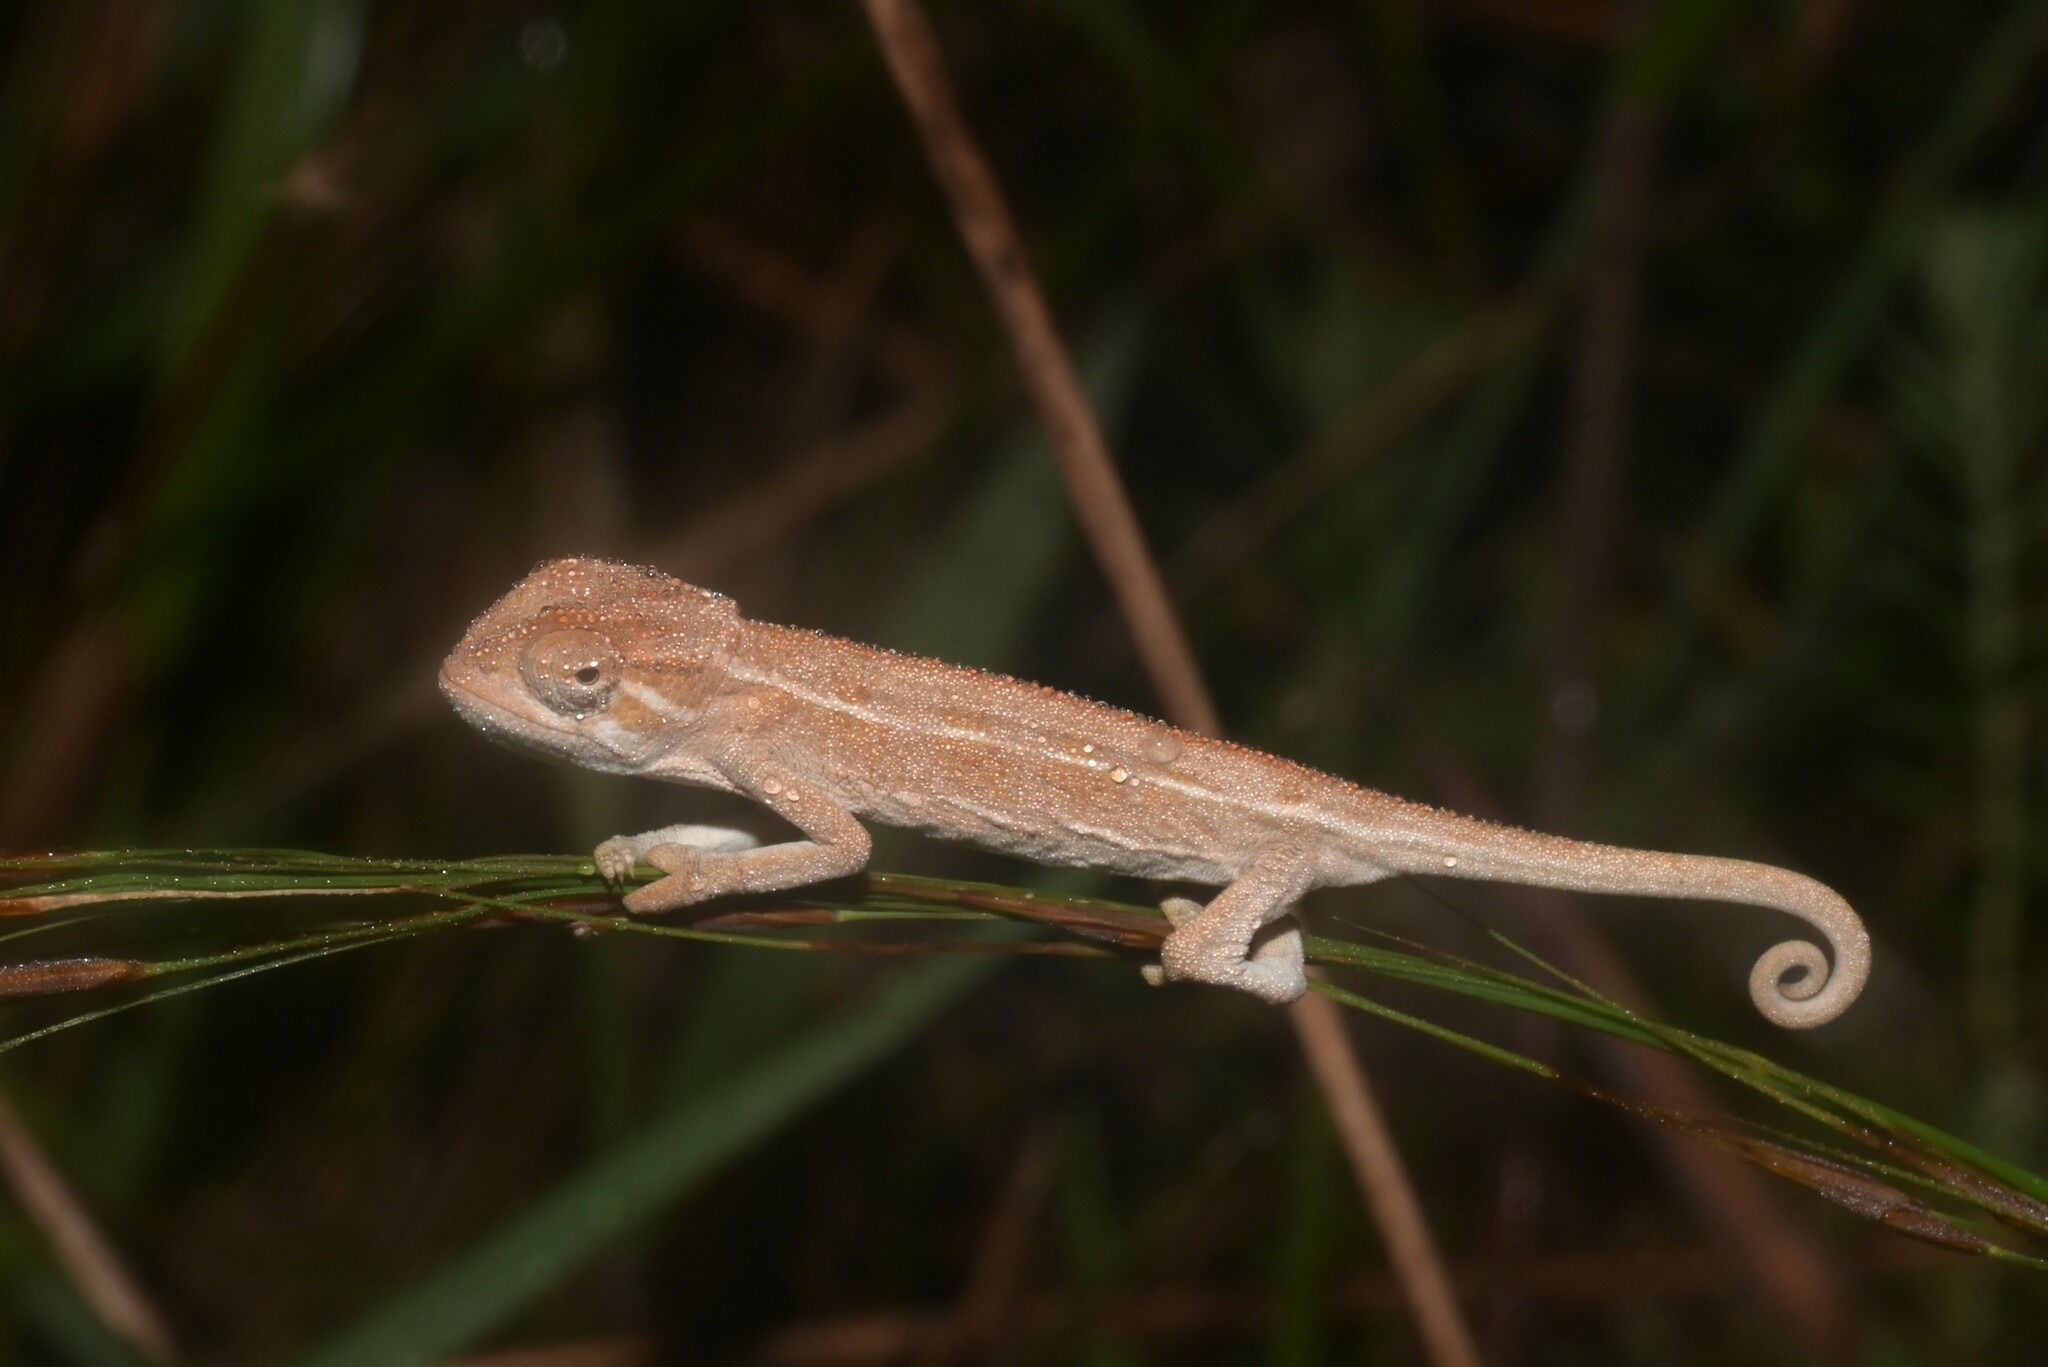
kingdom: Animalia
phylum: Chordata
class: Squamata
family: Chamaeleonidae
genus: Trioceros
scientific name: Trioceros goetzei
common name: Ilolo chameleon
